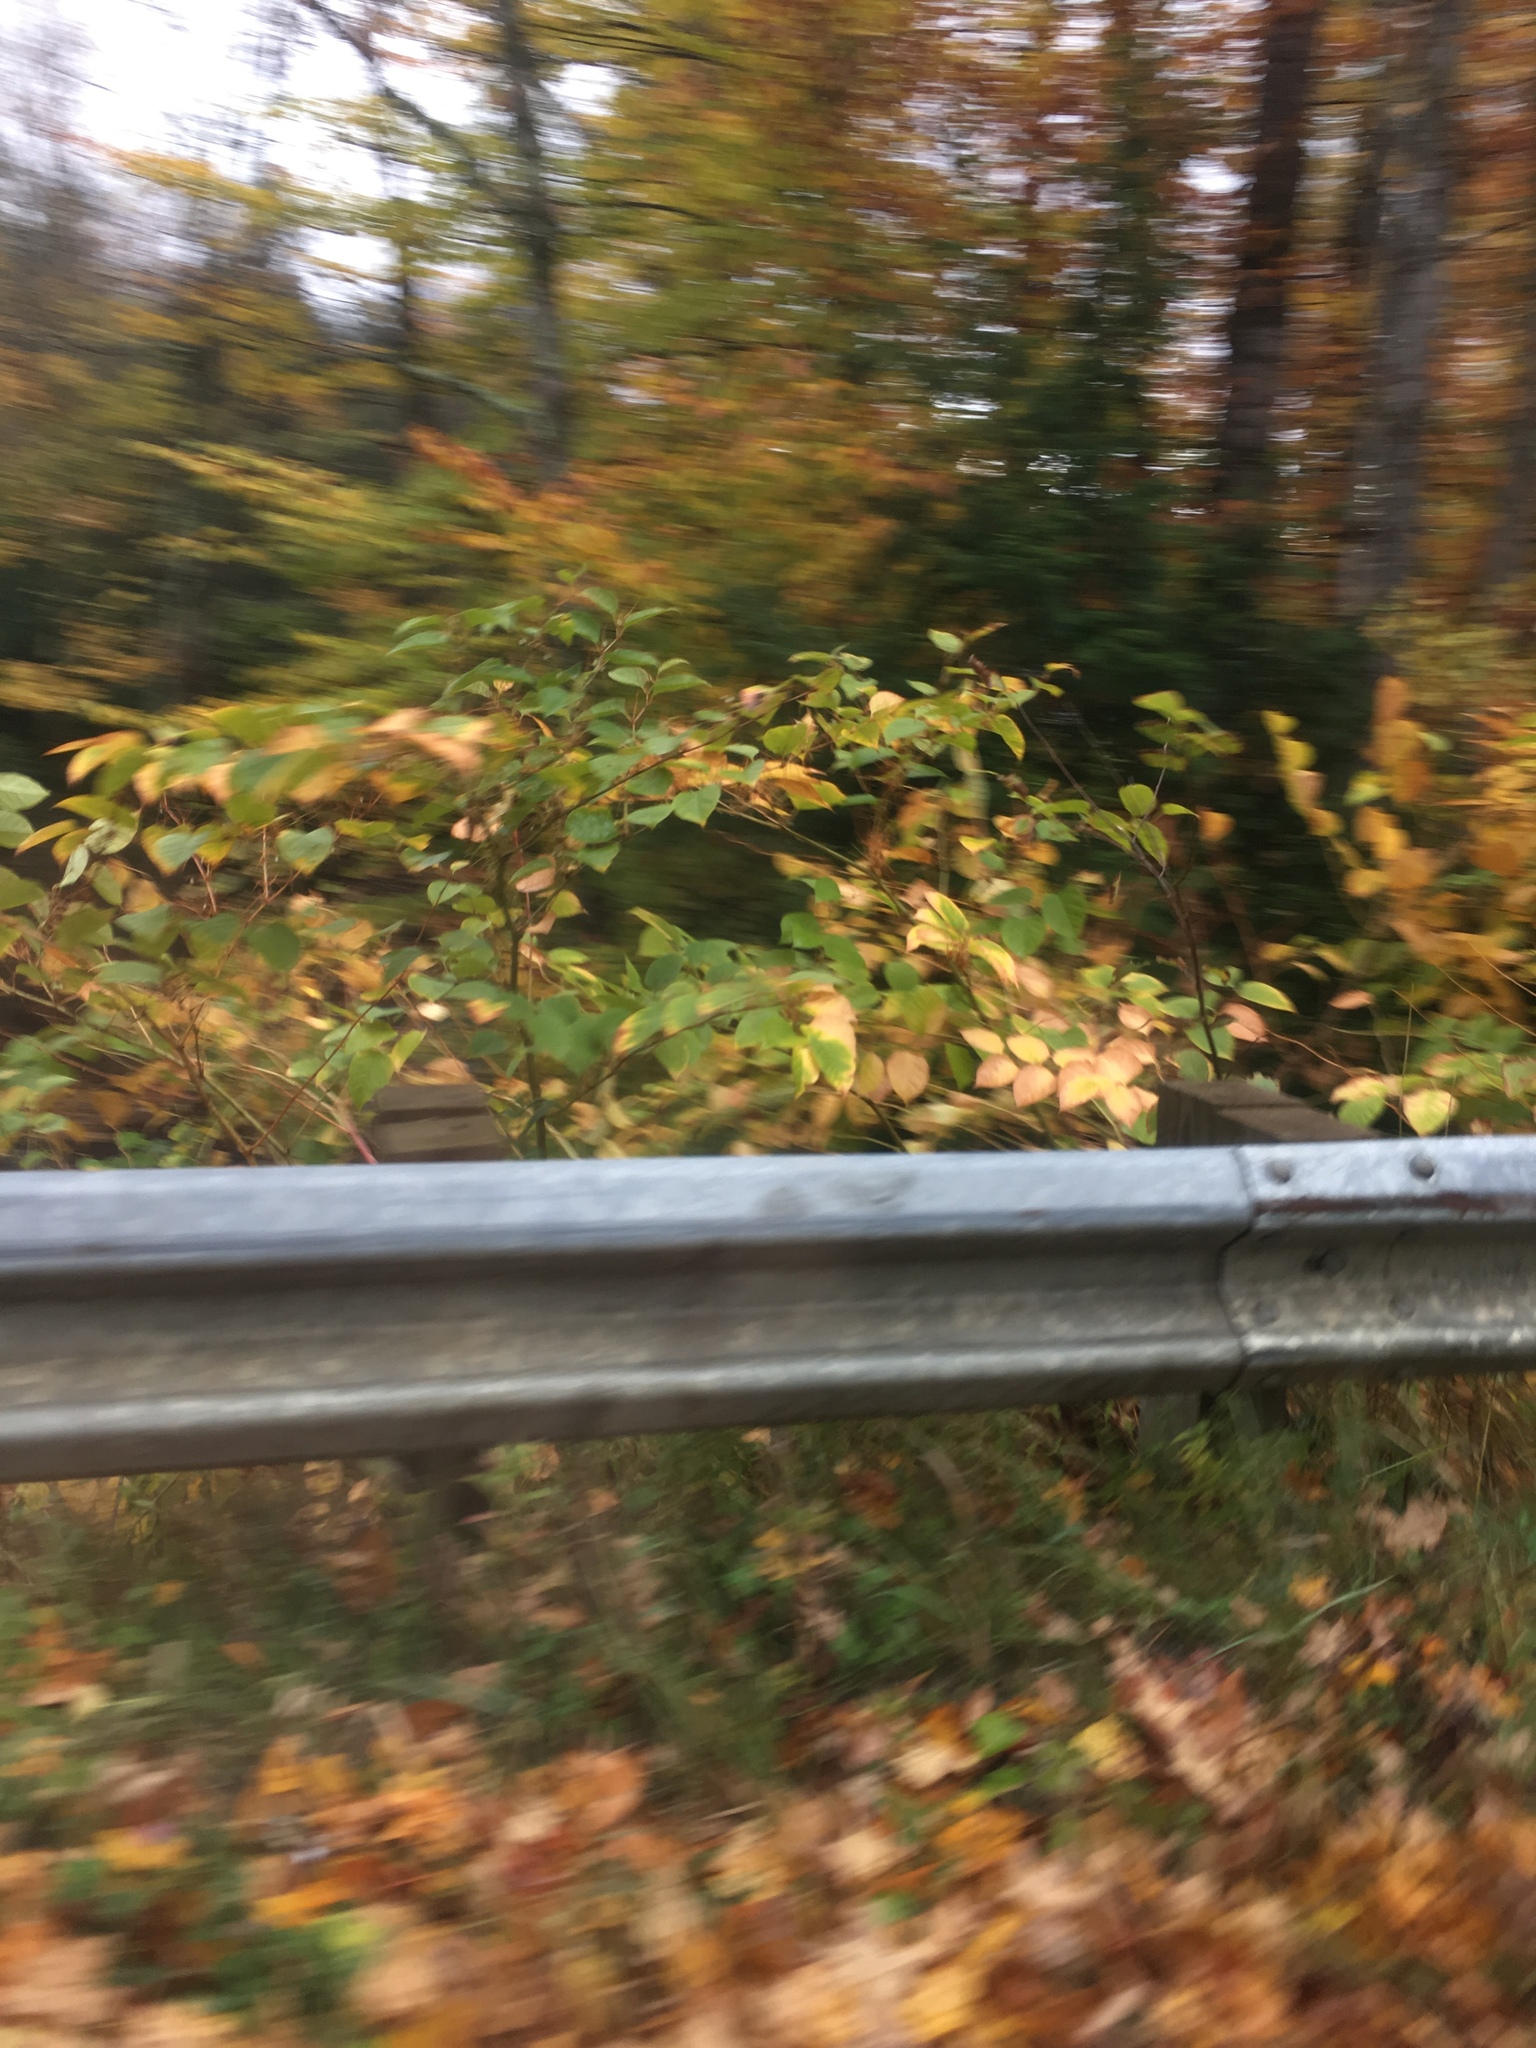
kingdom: Plantae
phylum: Tracheophyta
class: Magnoliopsida
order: Caryophyllales
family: Polygonaceae
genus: Reynoutria
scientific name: Reynoutria japonica
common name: Japanese knotweed
